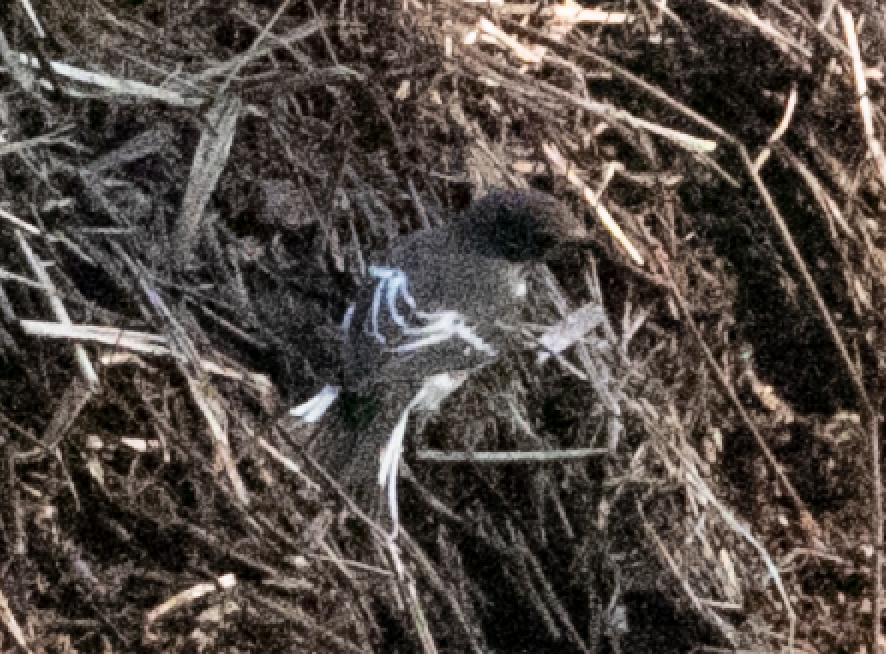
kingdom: Animalia
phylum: Chordata
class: Aves
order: Passeriformes
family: Muscicapidae
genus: Ficedula
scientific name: Ficedula hypoleuca
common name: European pied flycatcher
